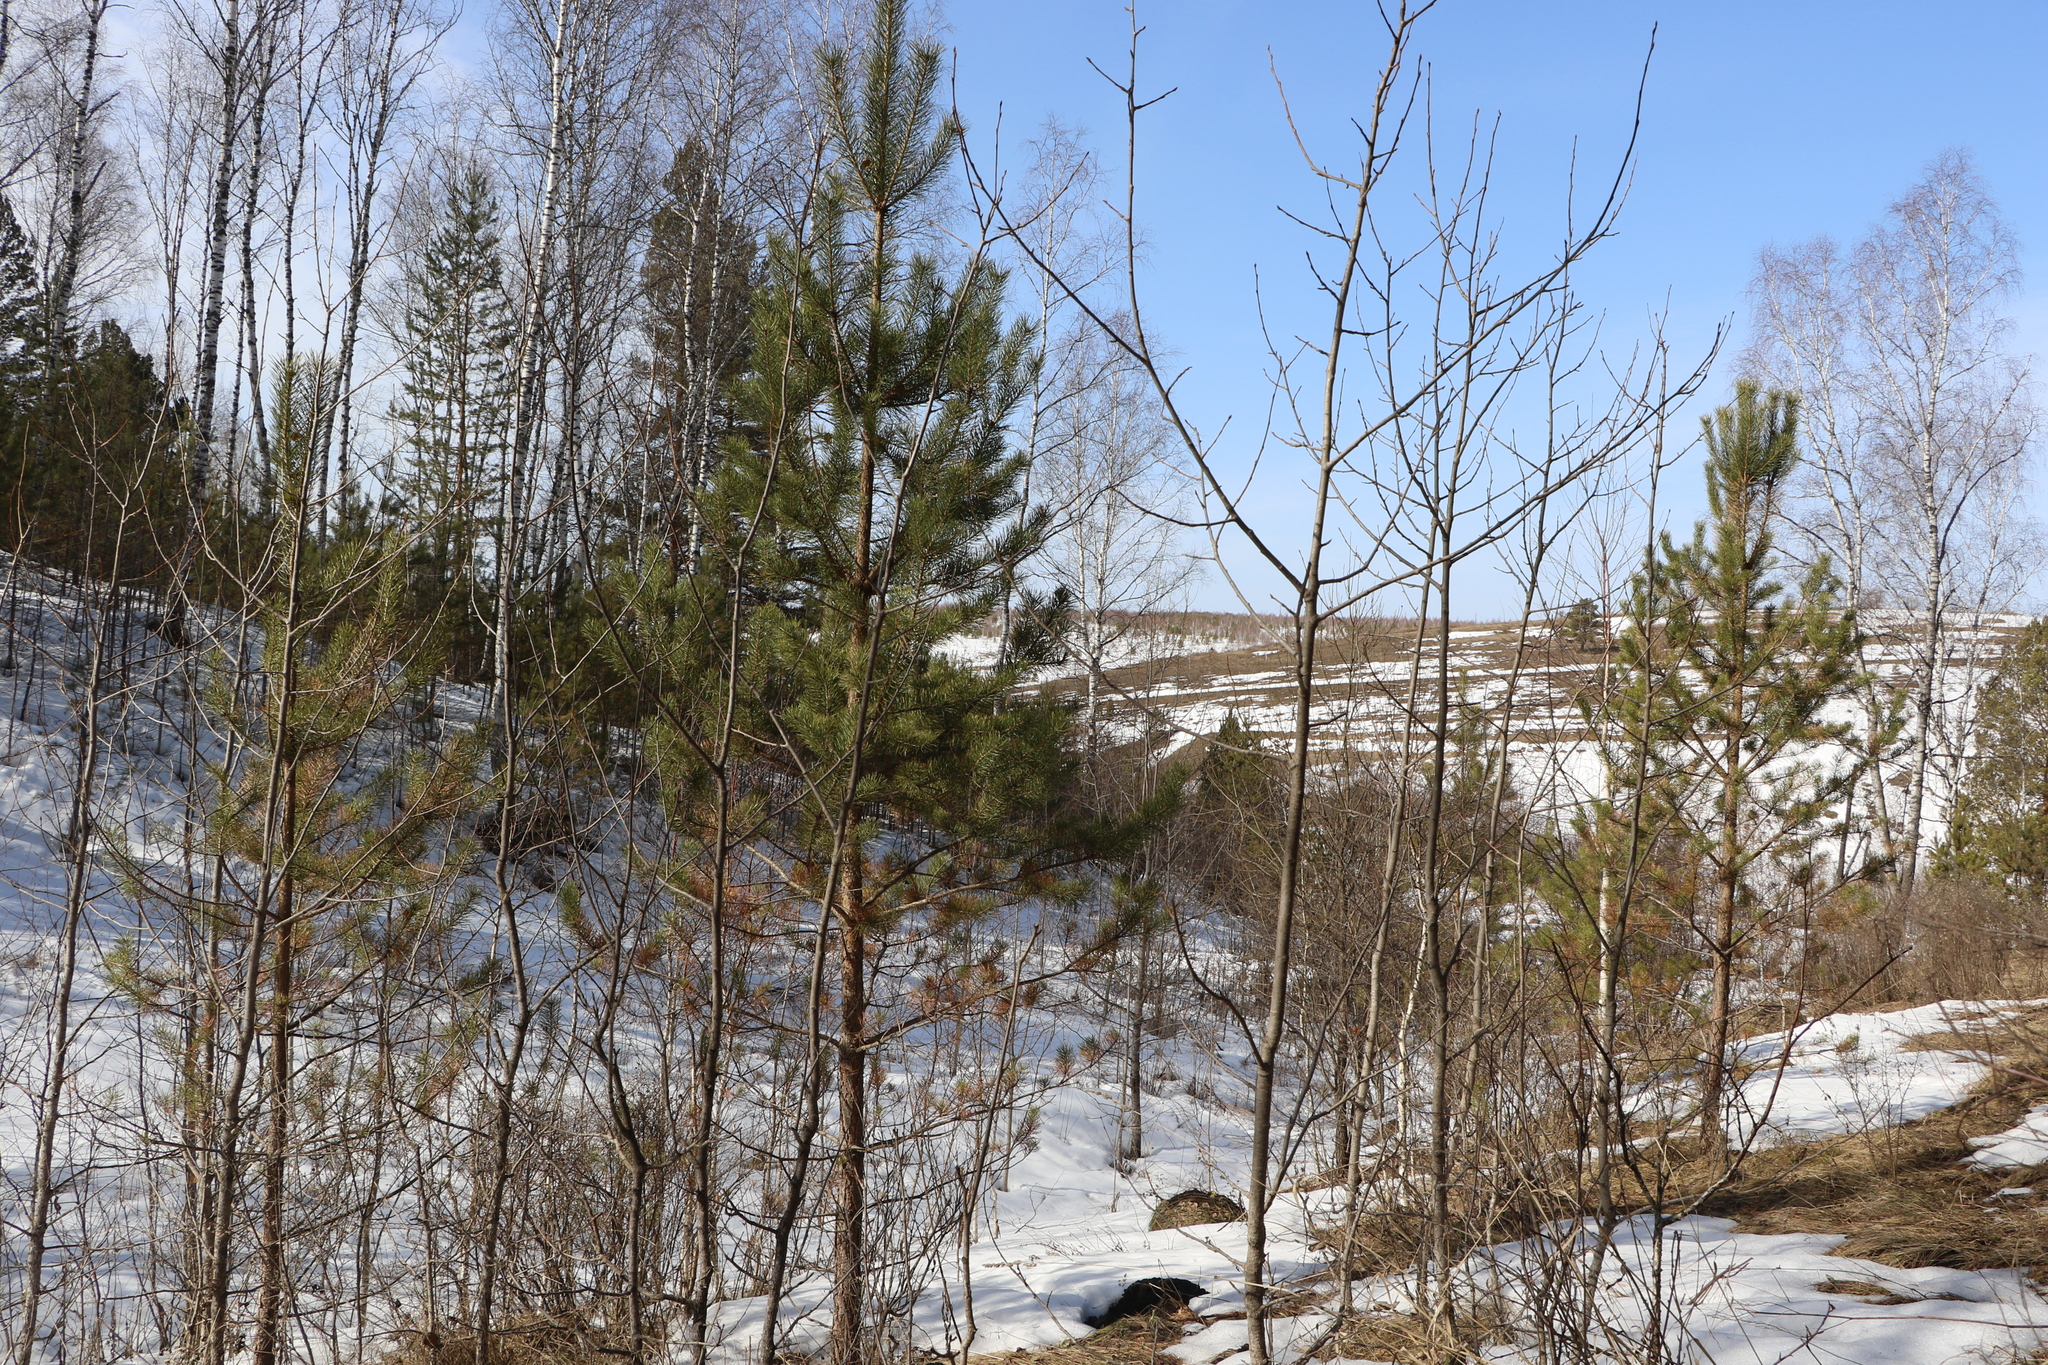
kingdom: Plantae
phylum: Tracheophyta
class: Pinopsida
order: Pinales
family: Pinaceae
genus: Pinus
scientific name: Pinus sylvestris
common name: Scots pine
